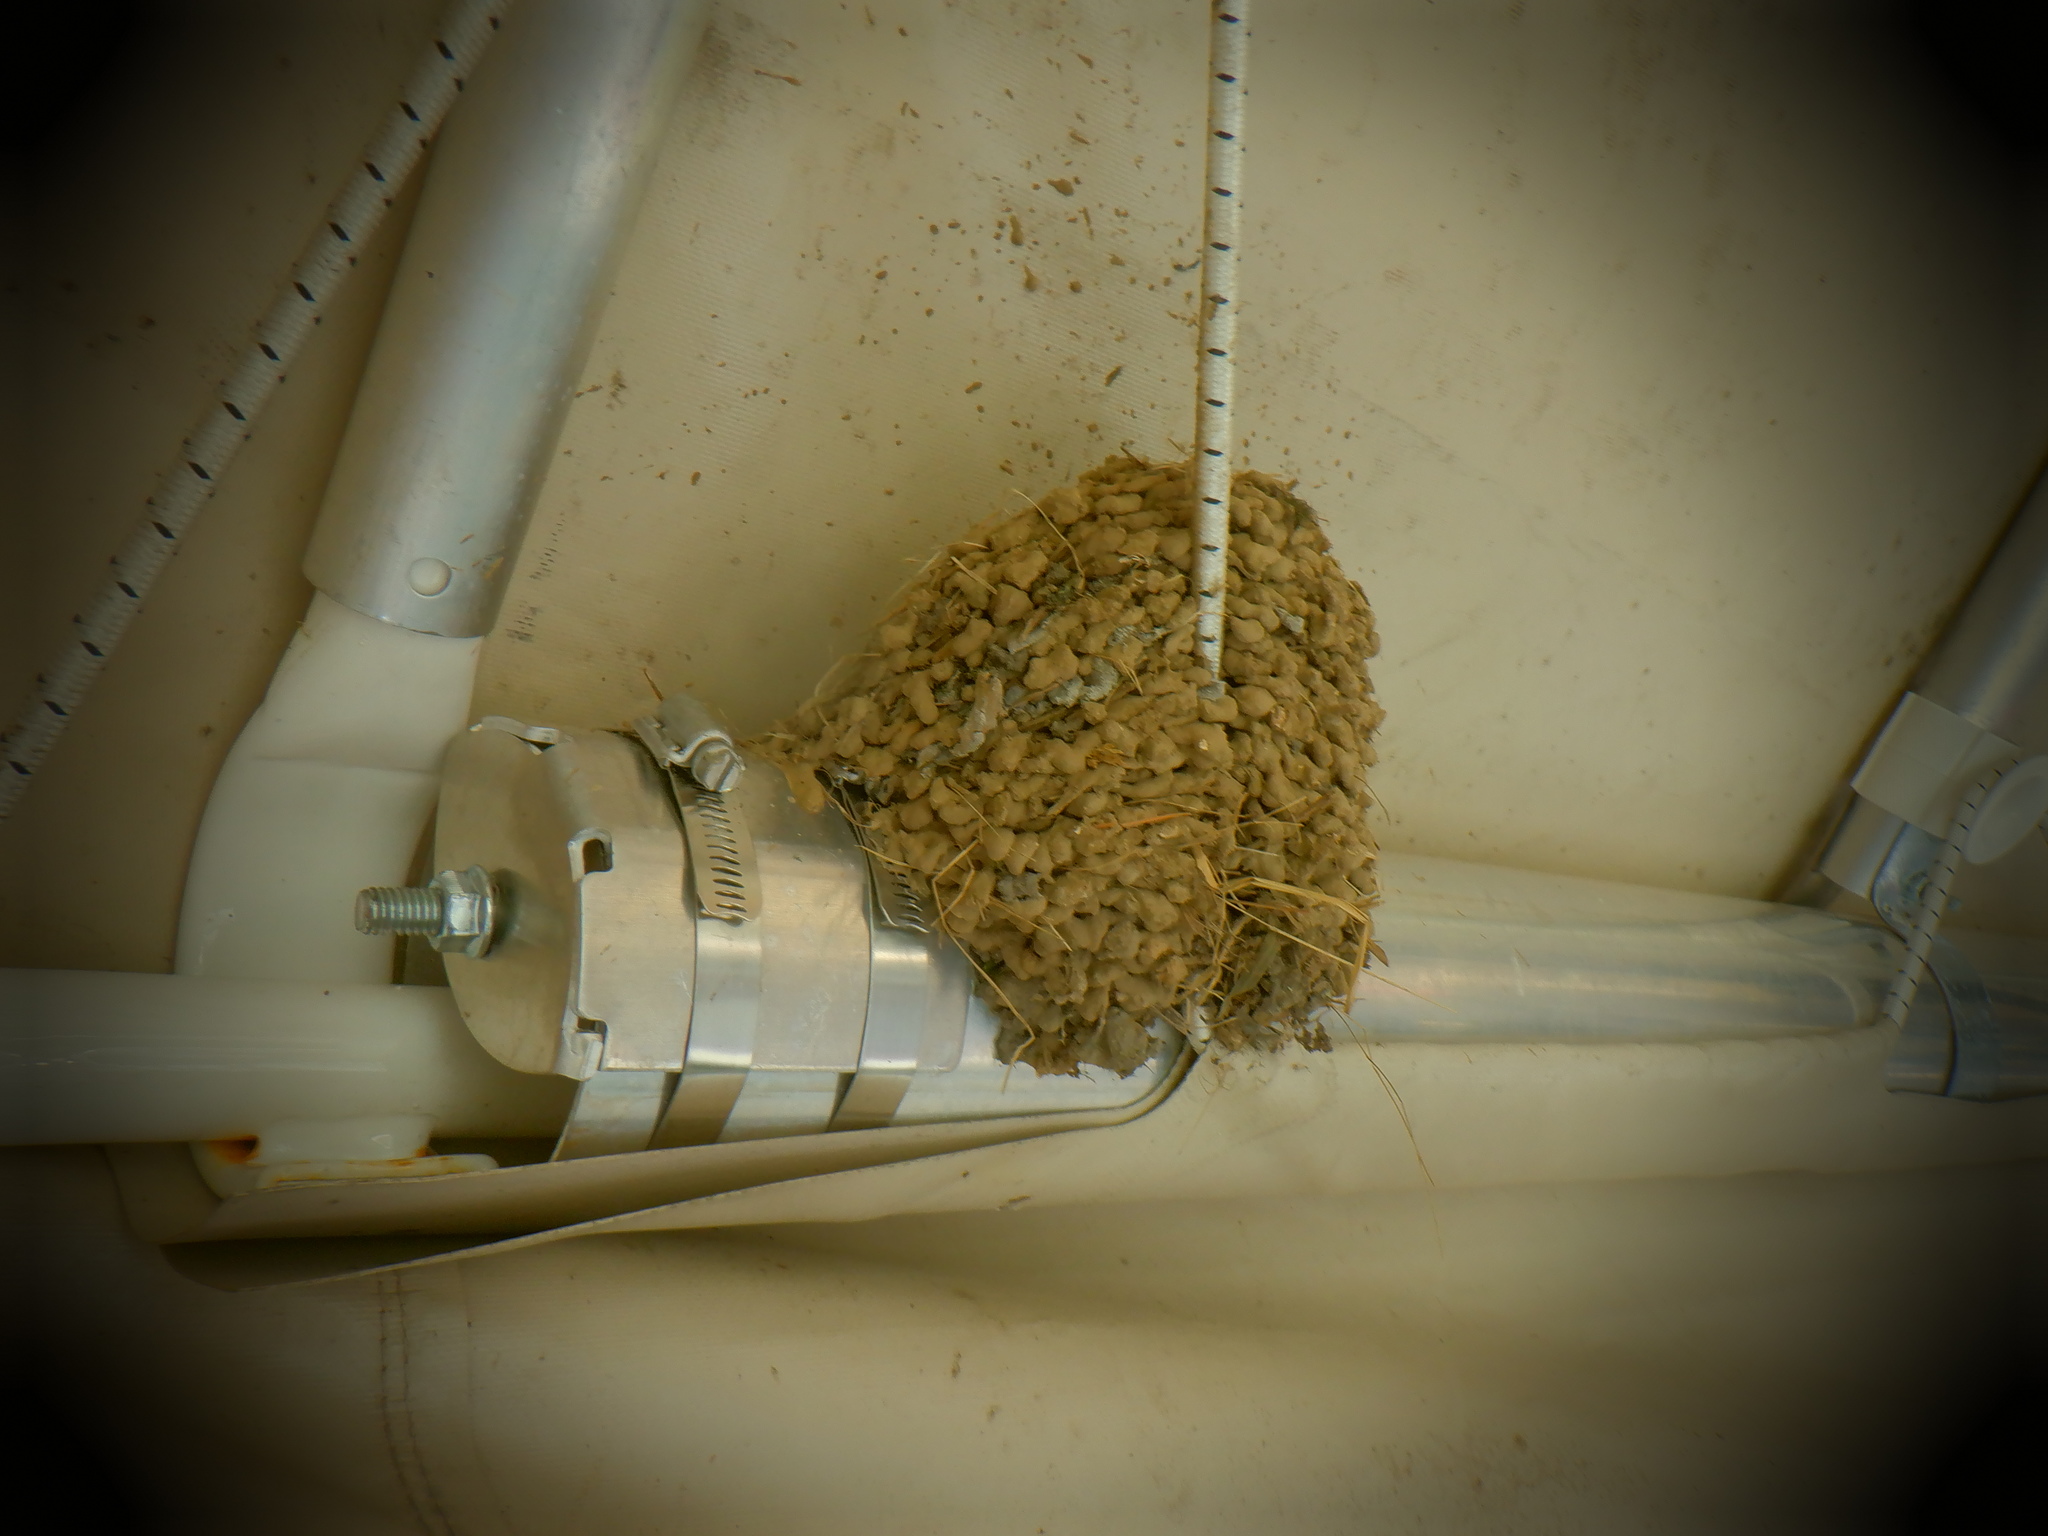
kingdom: Animalia
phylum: Chordata
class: Aves
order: Passeriformes
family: Hirundinidae
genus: Hirundo
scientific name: Hirundo rustica
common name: Barn swallow
